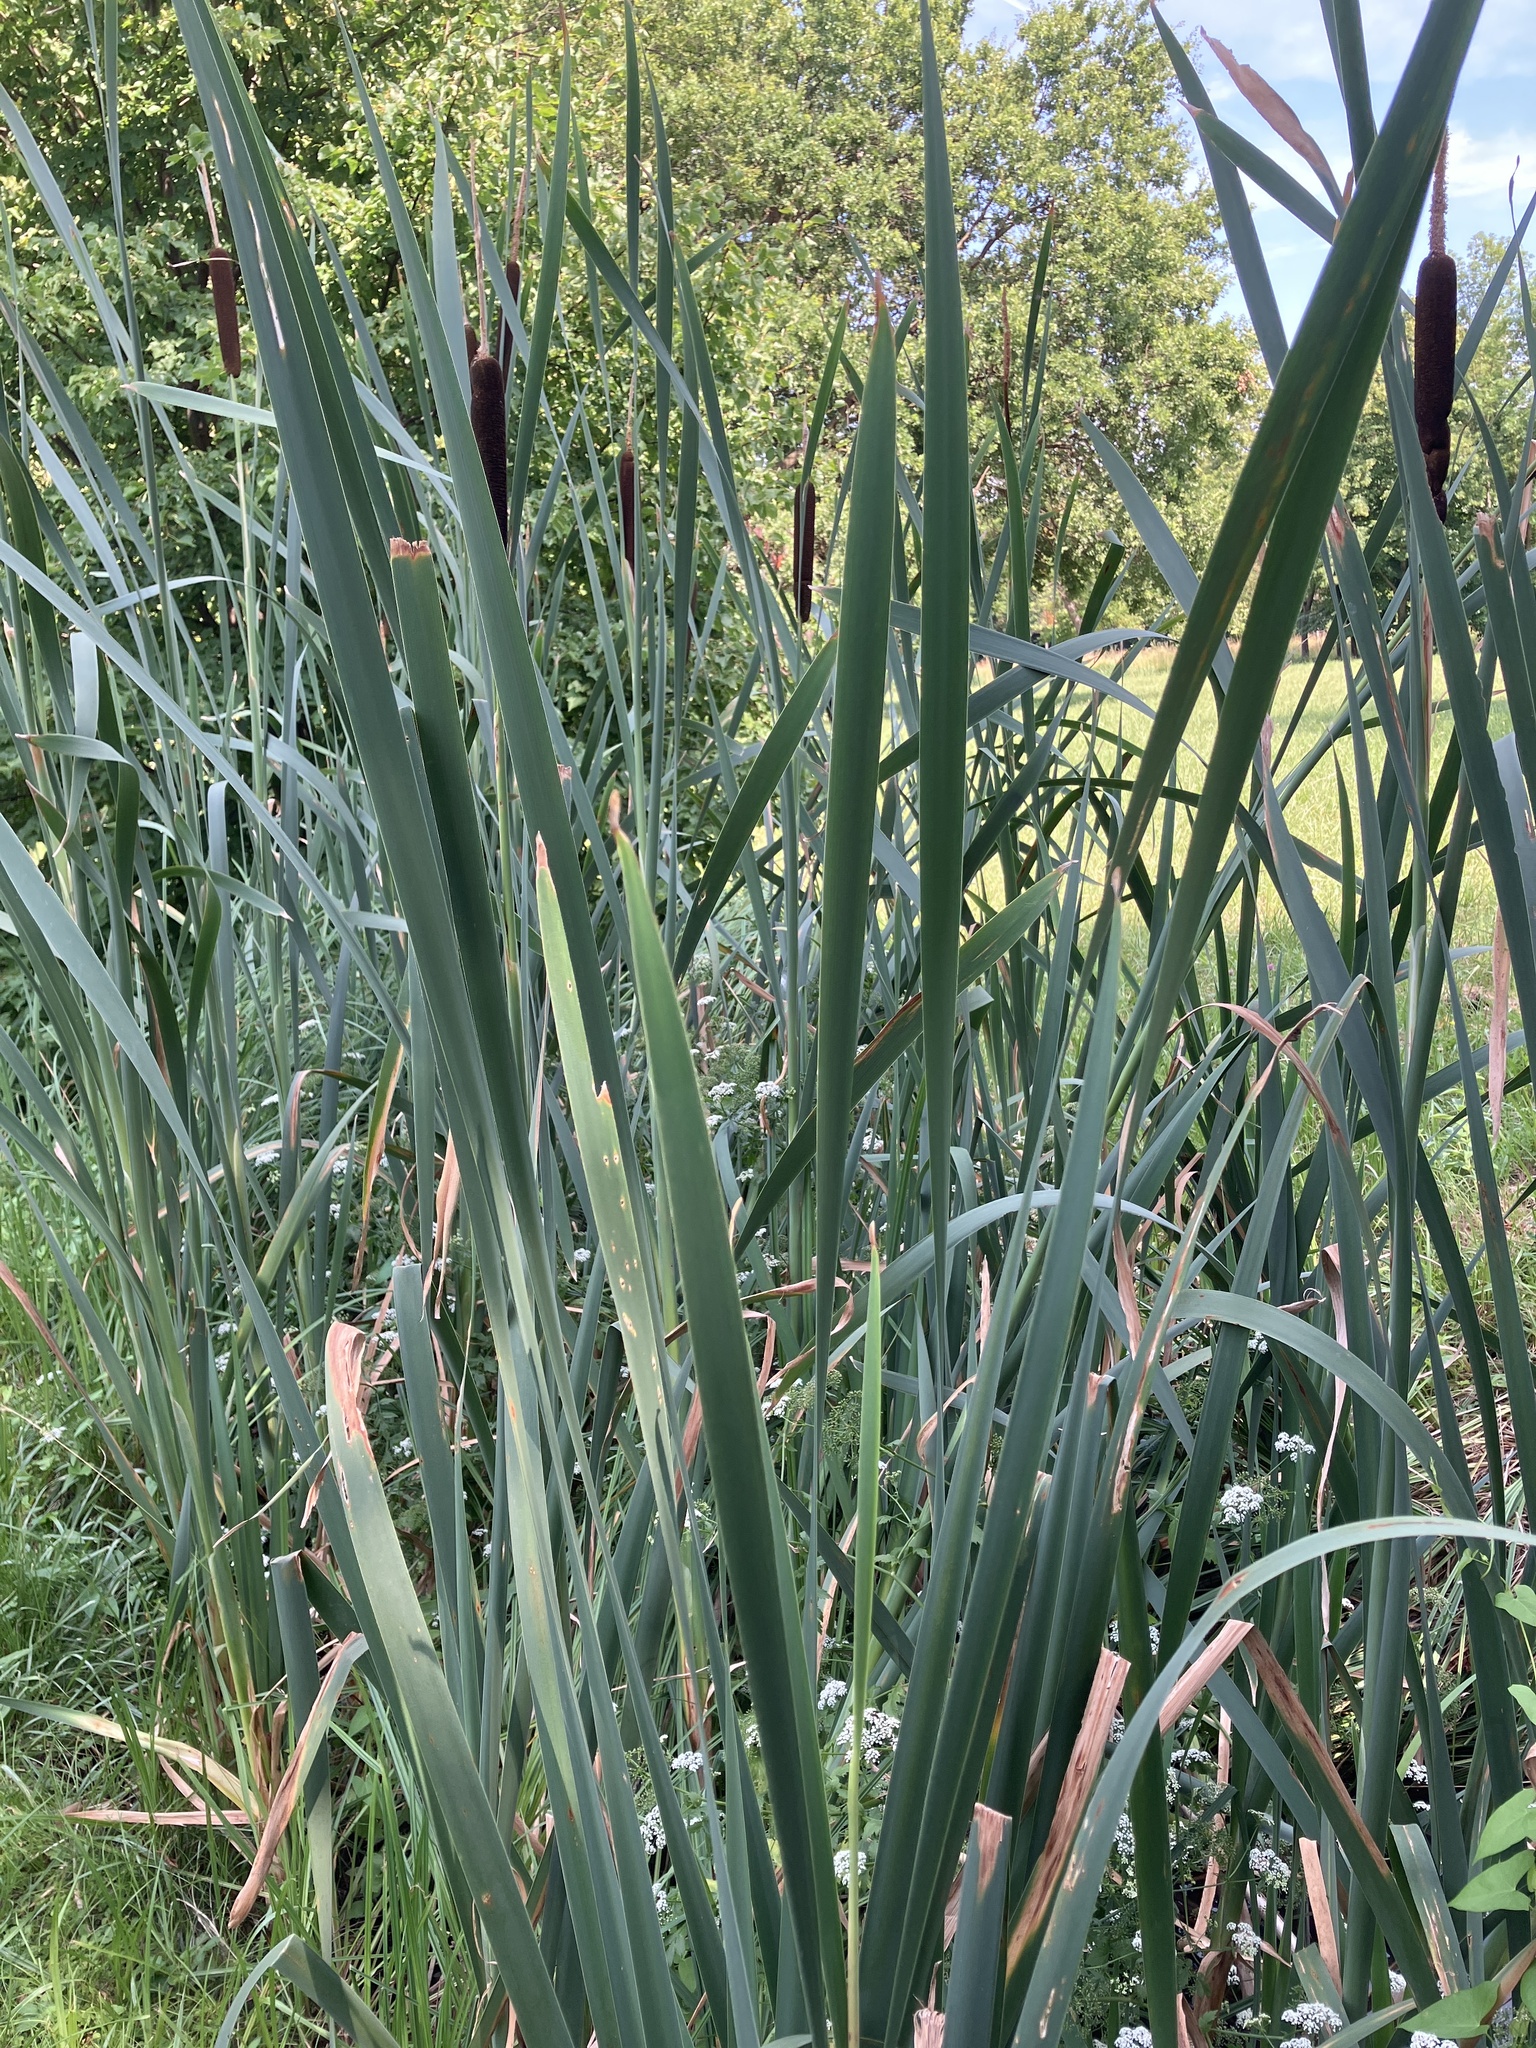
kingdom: Plantae
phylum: Tracheophyta
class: Liliopsida
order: Poales
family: Typhaceae
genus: Typha
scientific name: Typha latifolia
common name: Broadleaf cattail
